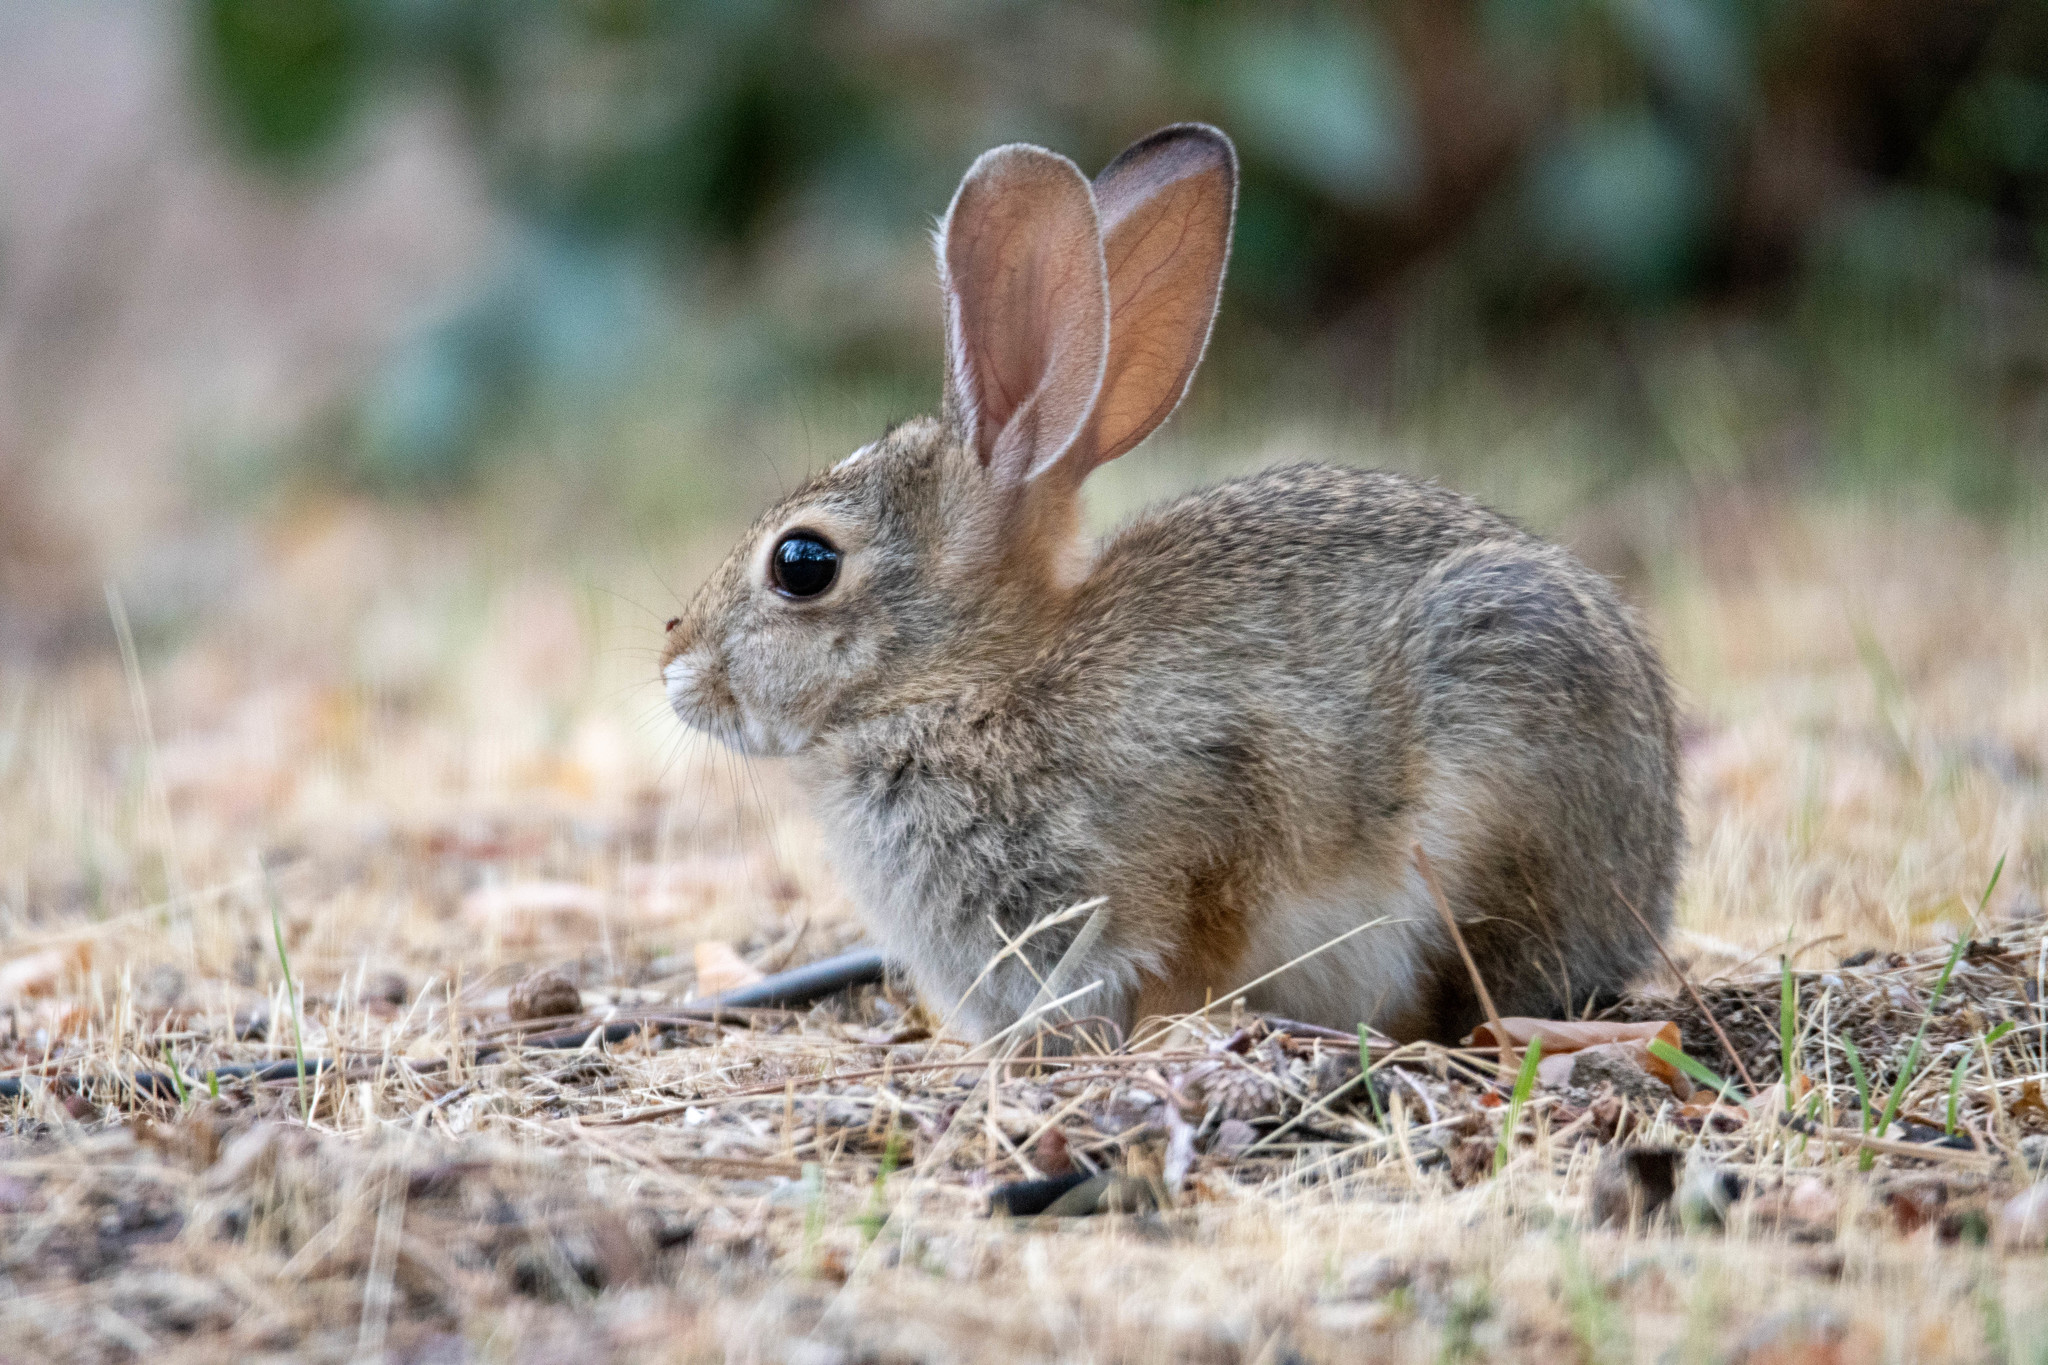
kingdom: Animalia
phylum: Chordata
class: Mammalia
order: Lagomorpha
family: Leporidae
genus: Sylvilagus
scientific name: Sylvilagus audubonii
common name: Desert cottontail
